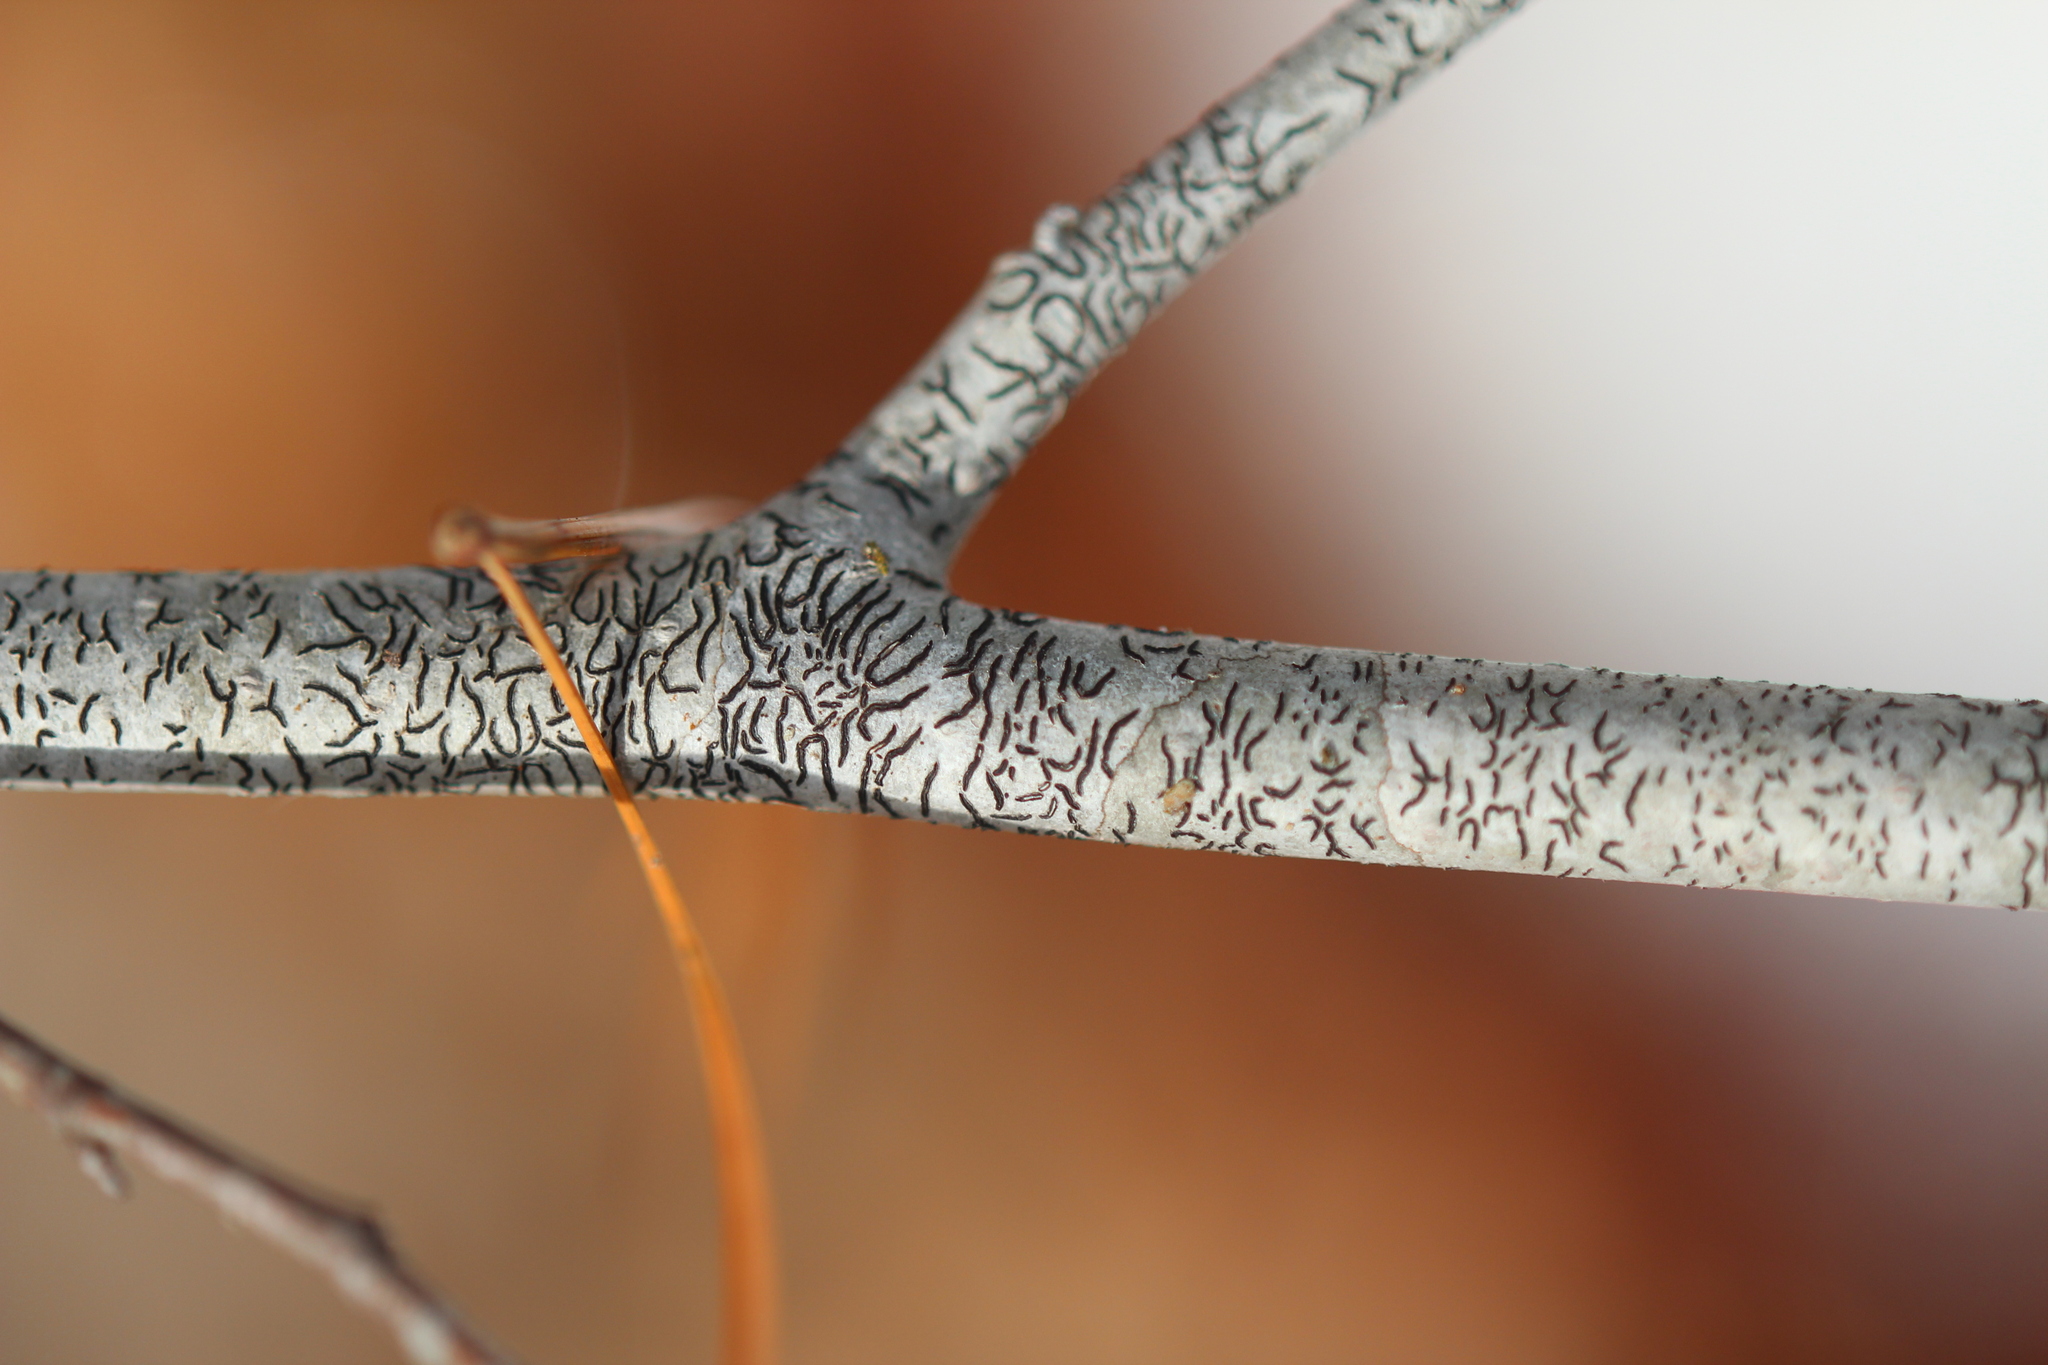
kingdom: Fungi
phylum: Ascomycota
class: Lecanoromycetes
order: Ostropales
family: Graphidaceae
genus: Graphis
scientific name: Graphis scripta
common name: Script lichen
